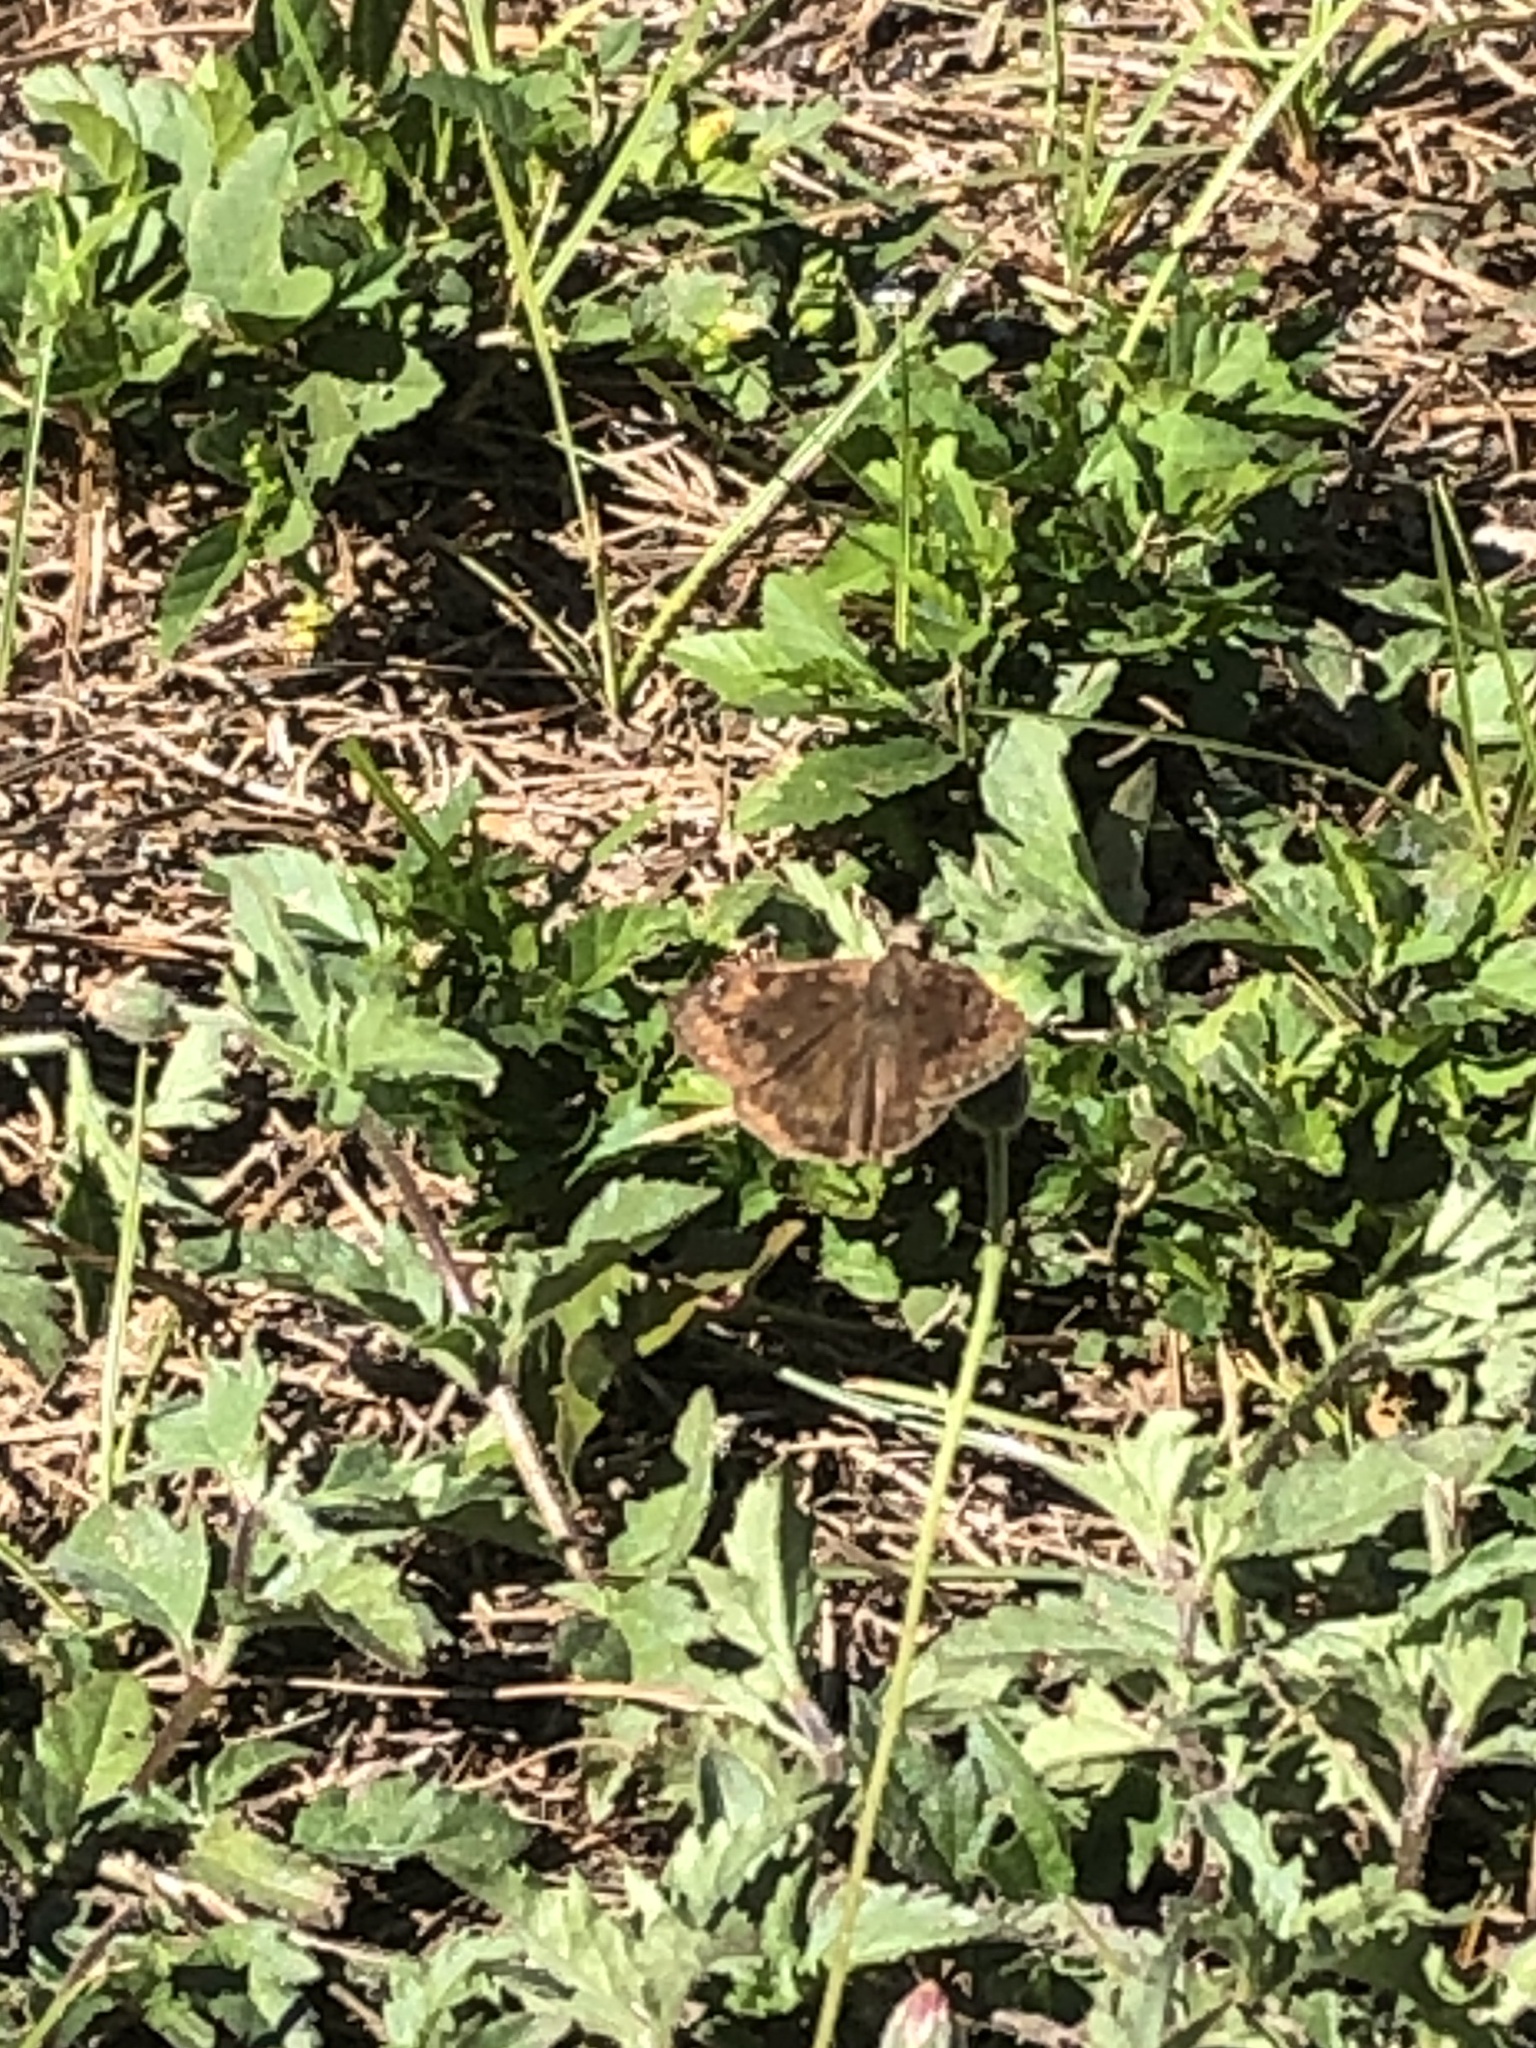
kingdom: Animalia
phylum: Arthropoda
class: Insecta
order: Lepidoptera
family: Hesperiidae
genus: Erynnis
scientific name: Erynnis horatius
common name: Horace's duskywing
